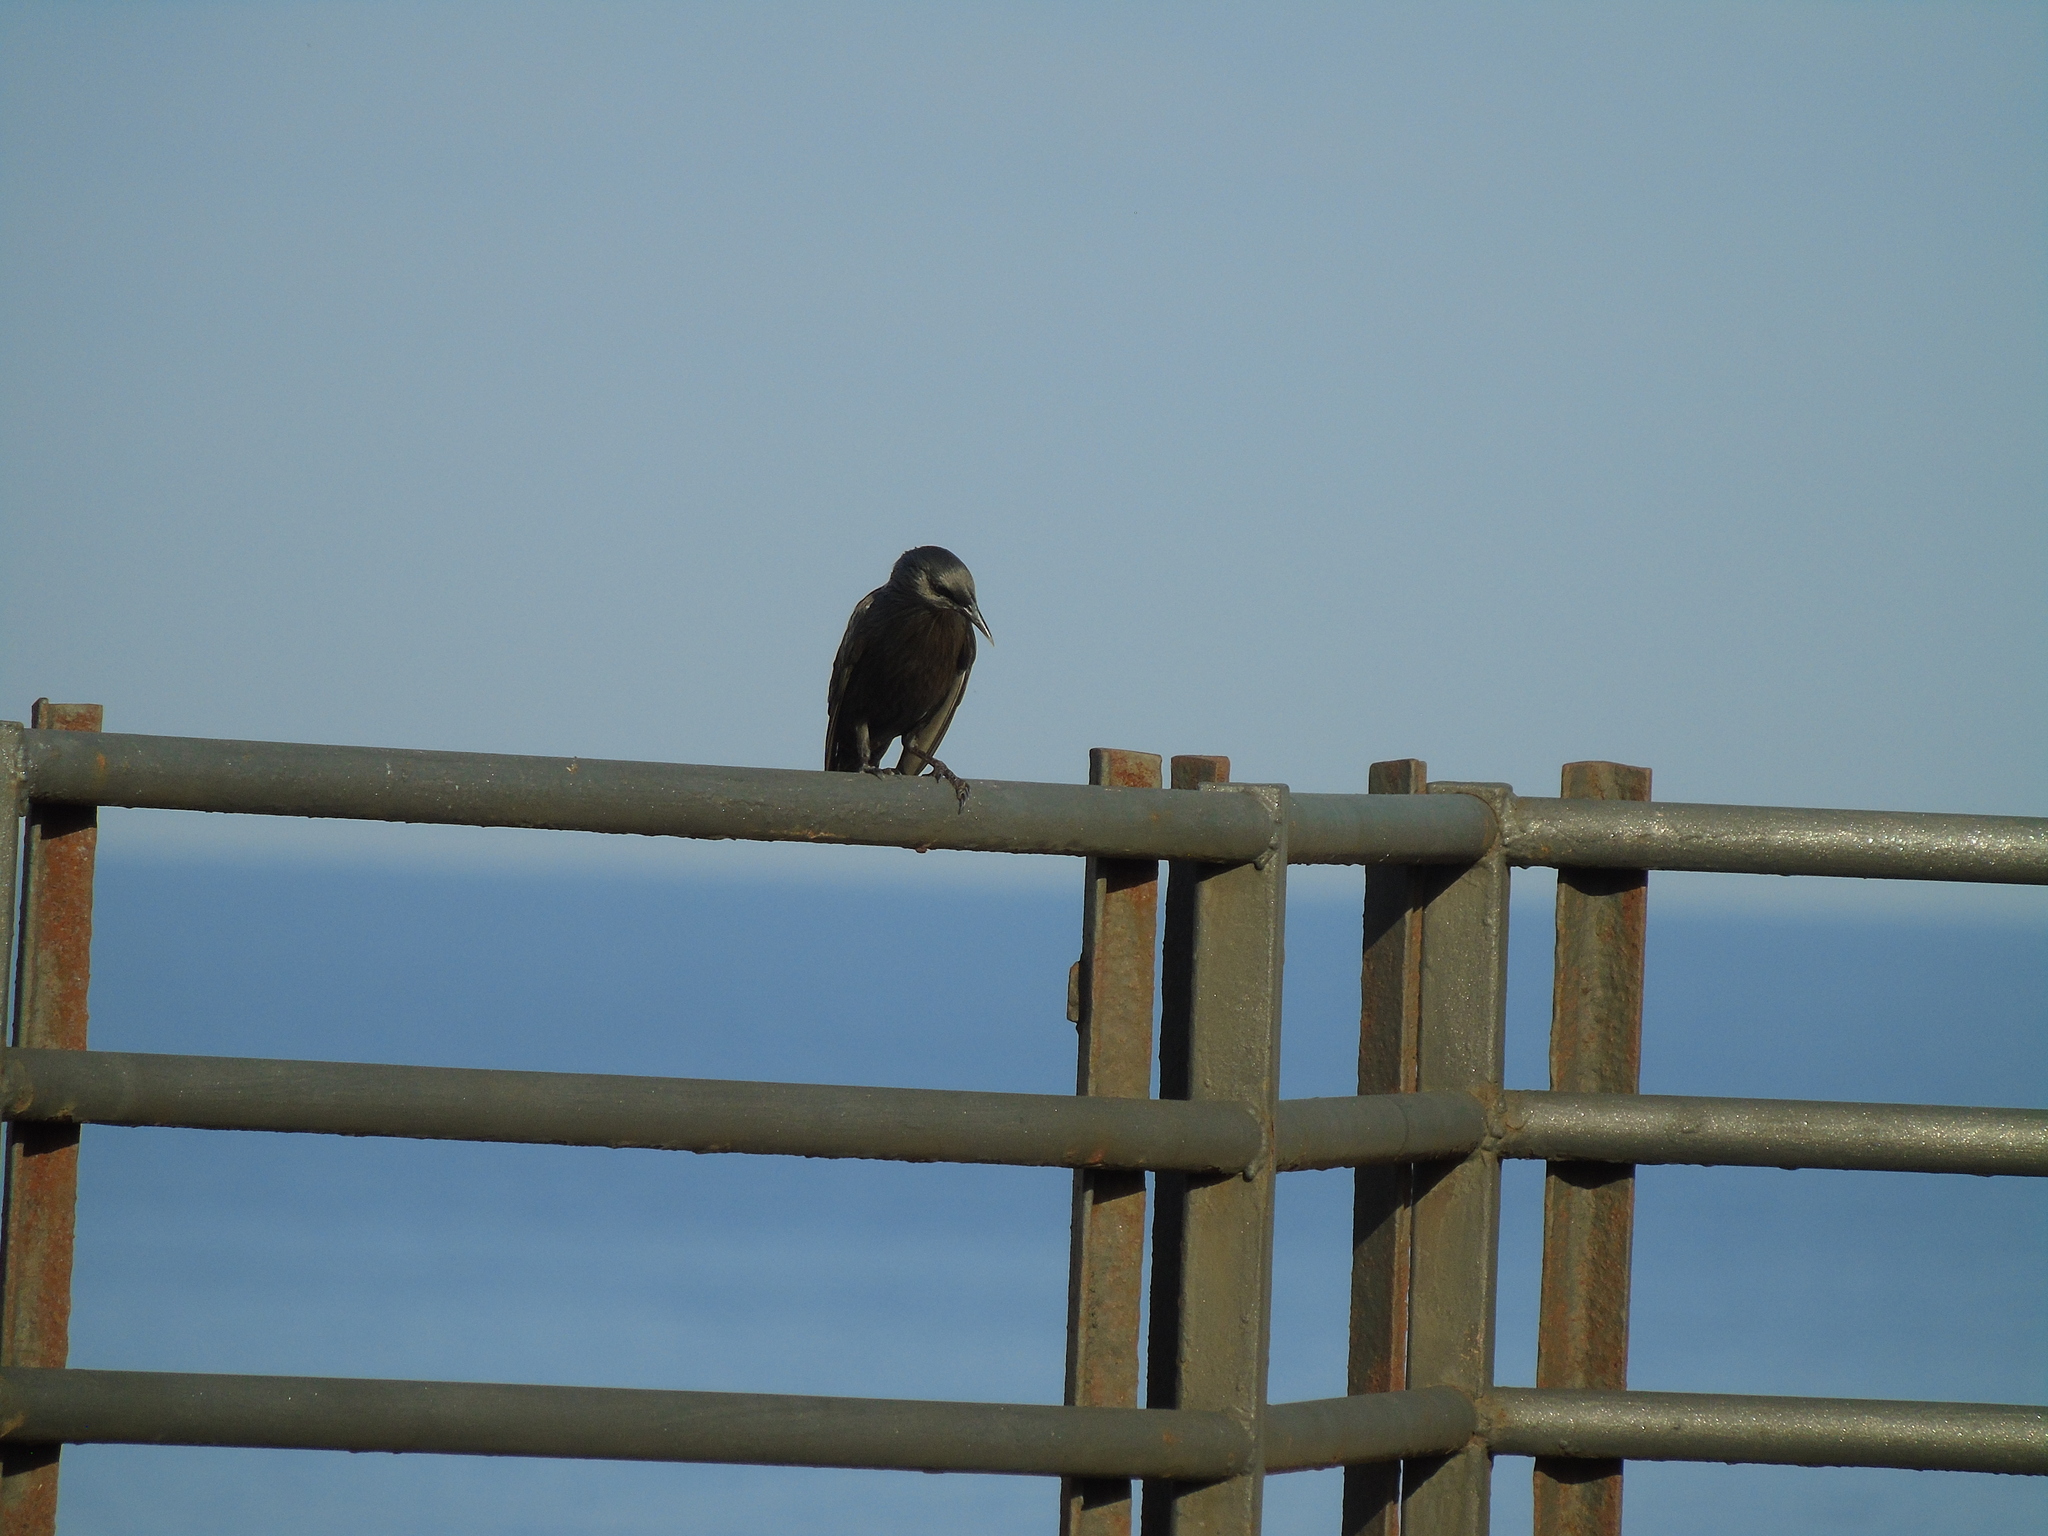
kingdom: Animalia
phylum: Chordata
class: Aves
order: Passeriformes
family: Sturnidae
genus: Sturnus
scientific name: Sturnus unicolor
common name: Spotless starling
